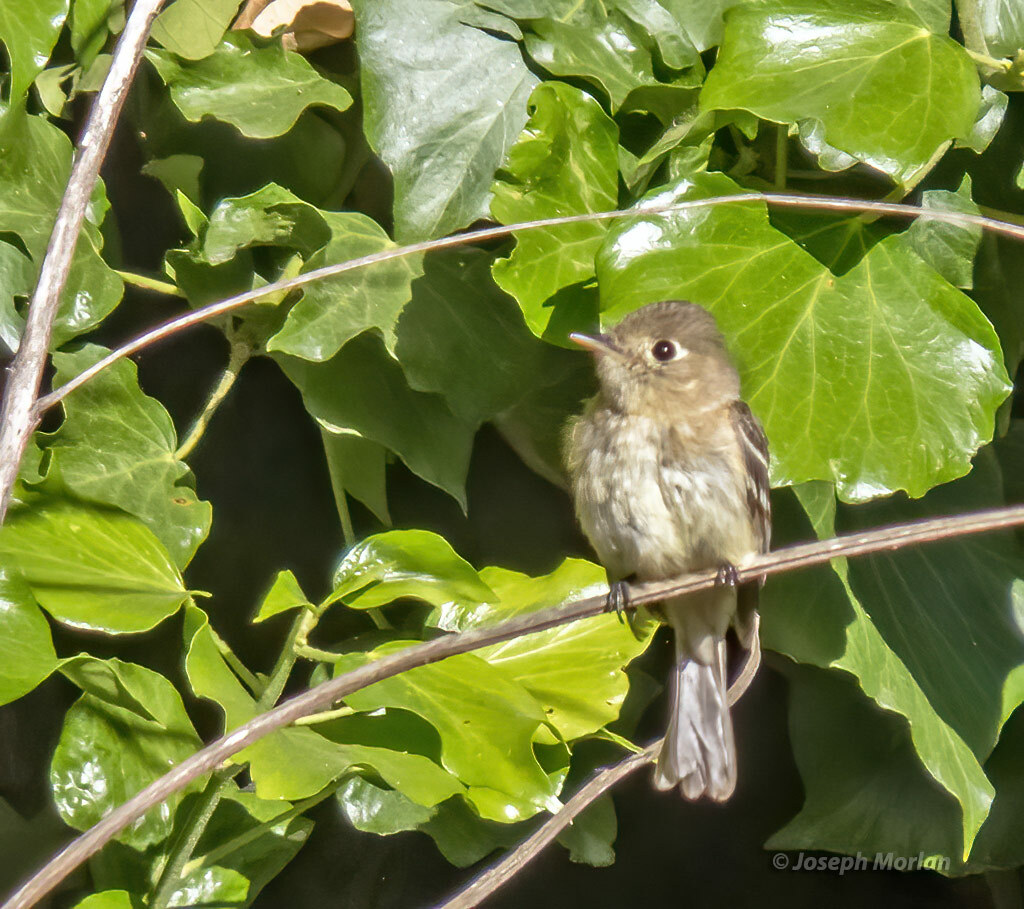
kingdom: Animalia
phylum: Chordata
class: Aves
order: Passeriformes
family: Tyrannidae
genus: Empidonax
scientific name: Empidonax difficilis
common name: Pacific-slope flycatcher
